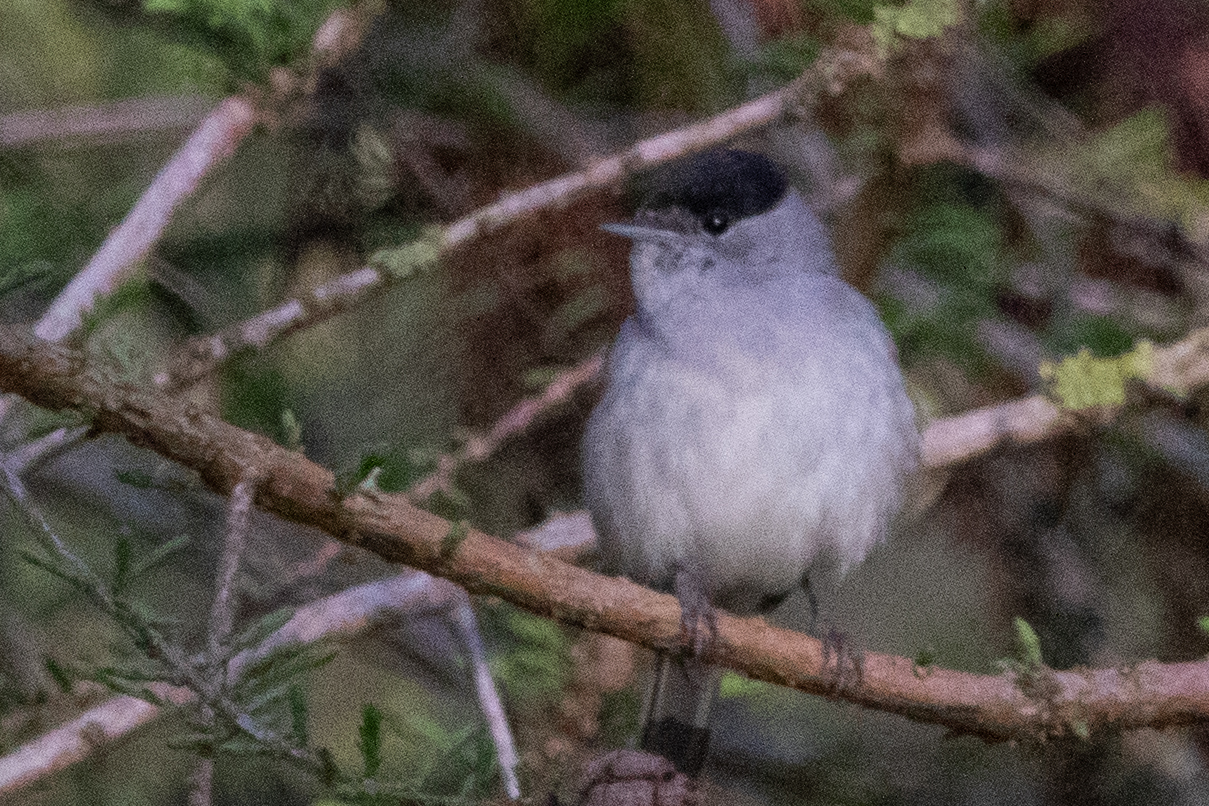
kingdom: Animalia
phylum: Chordata
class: Aves
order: Passeriformes
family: Sylviidae
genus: Sylvia
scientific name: Sylvia atricapilla
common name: Eurasian blackcap
